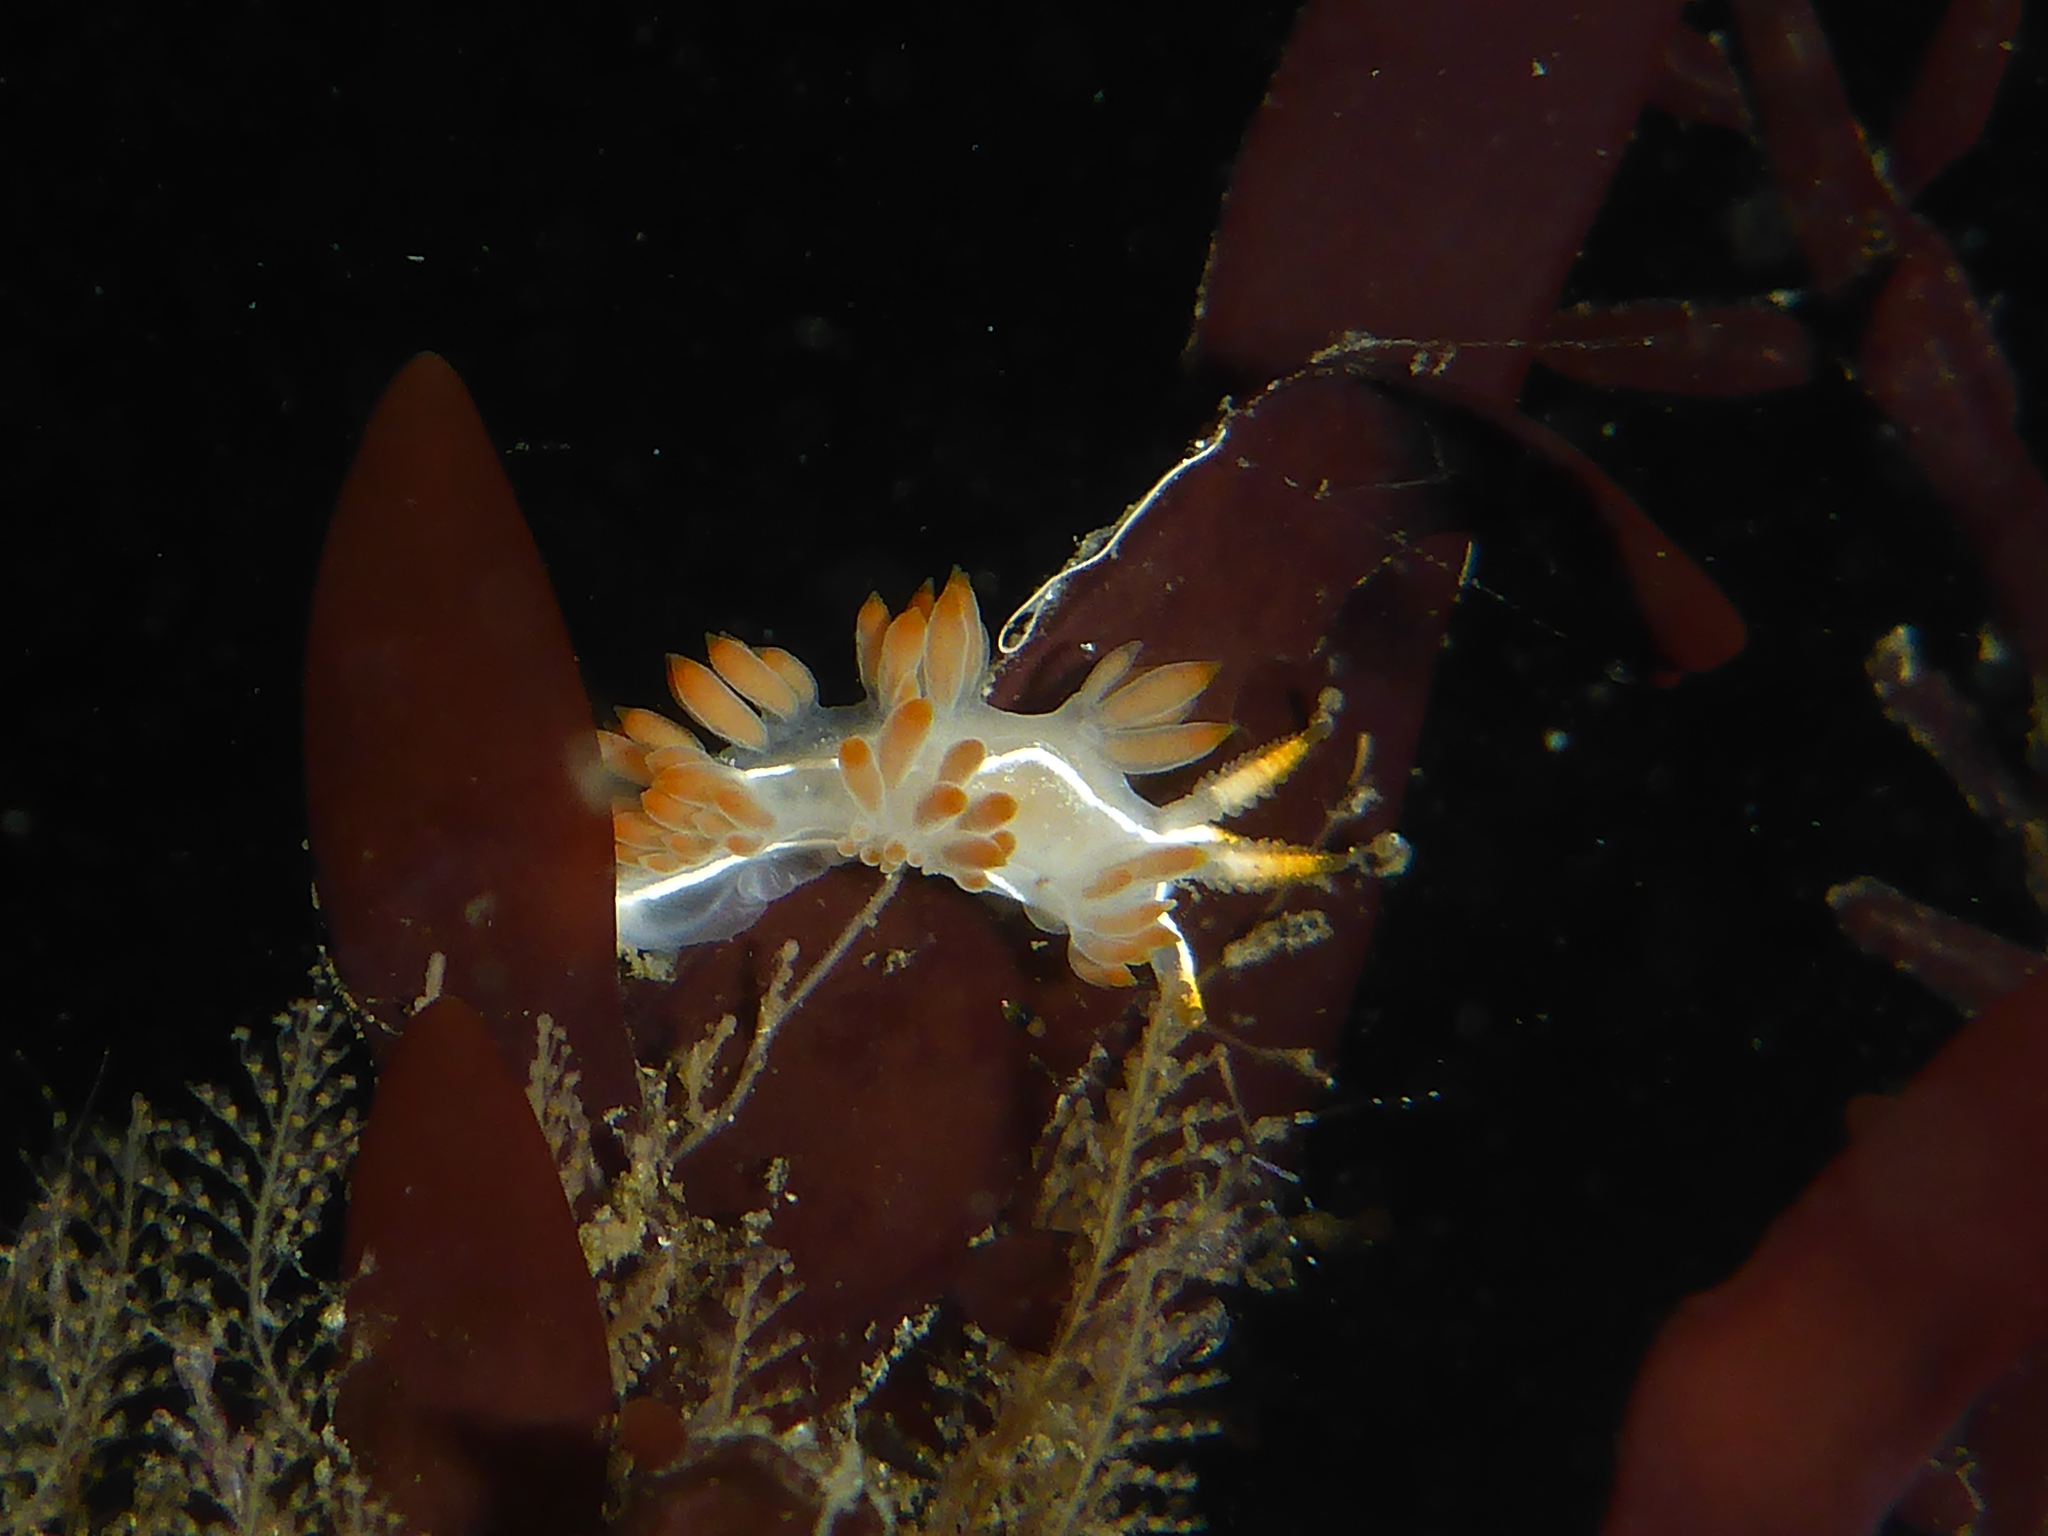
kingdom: Animalia
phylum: Mollusca
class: Gastropoda
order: Nudibranchia
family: Coryphellidae
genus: Coryphella
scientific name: Coryphella trilineata
